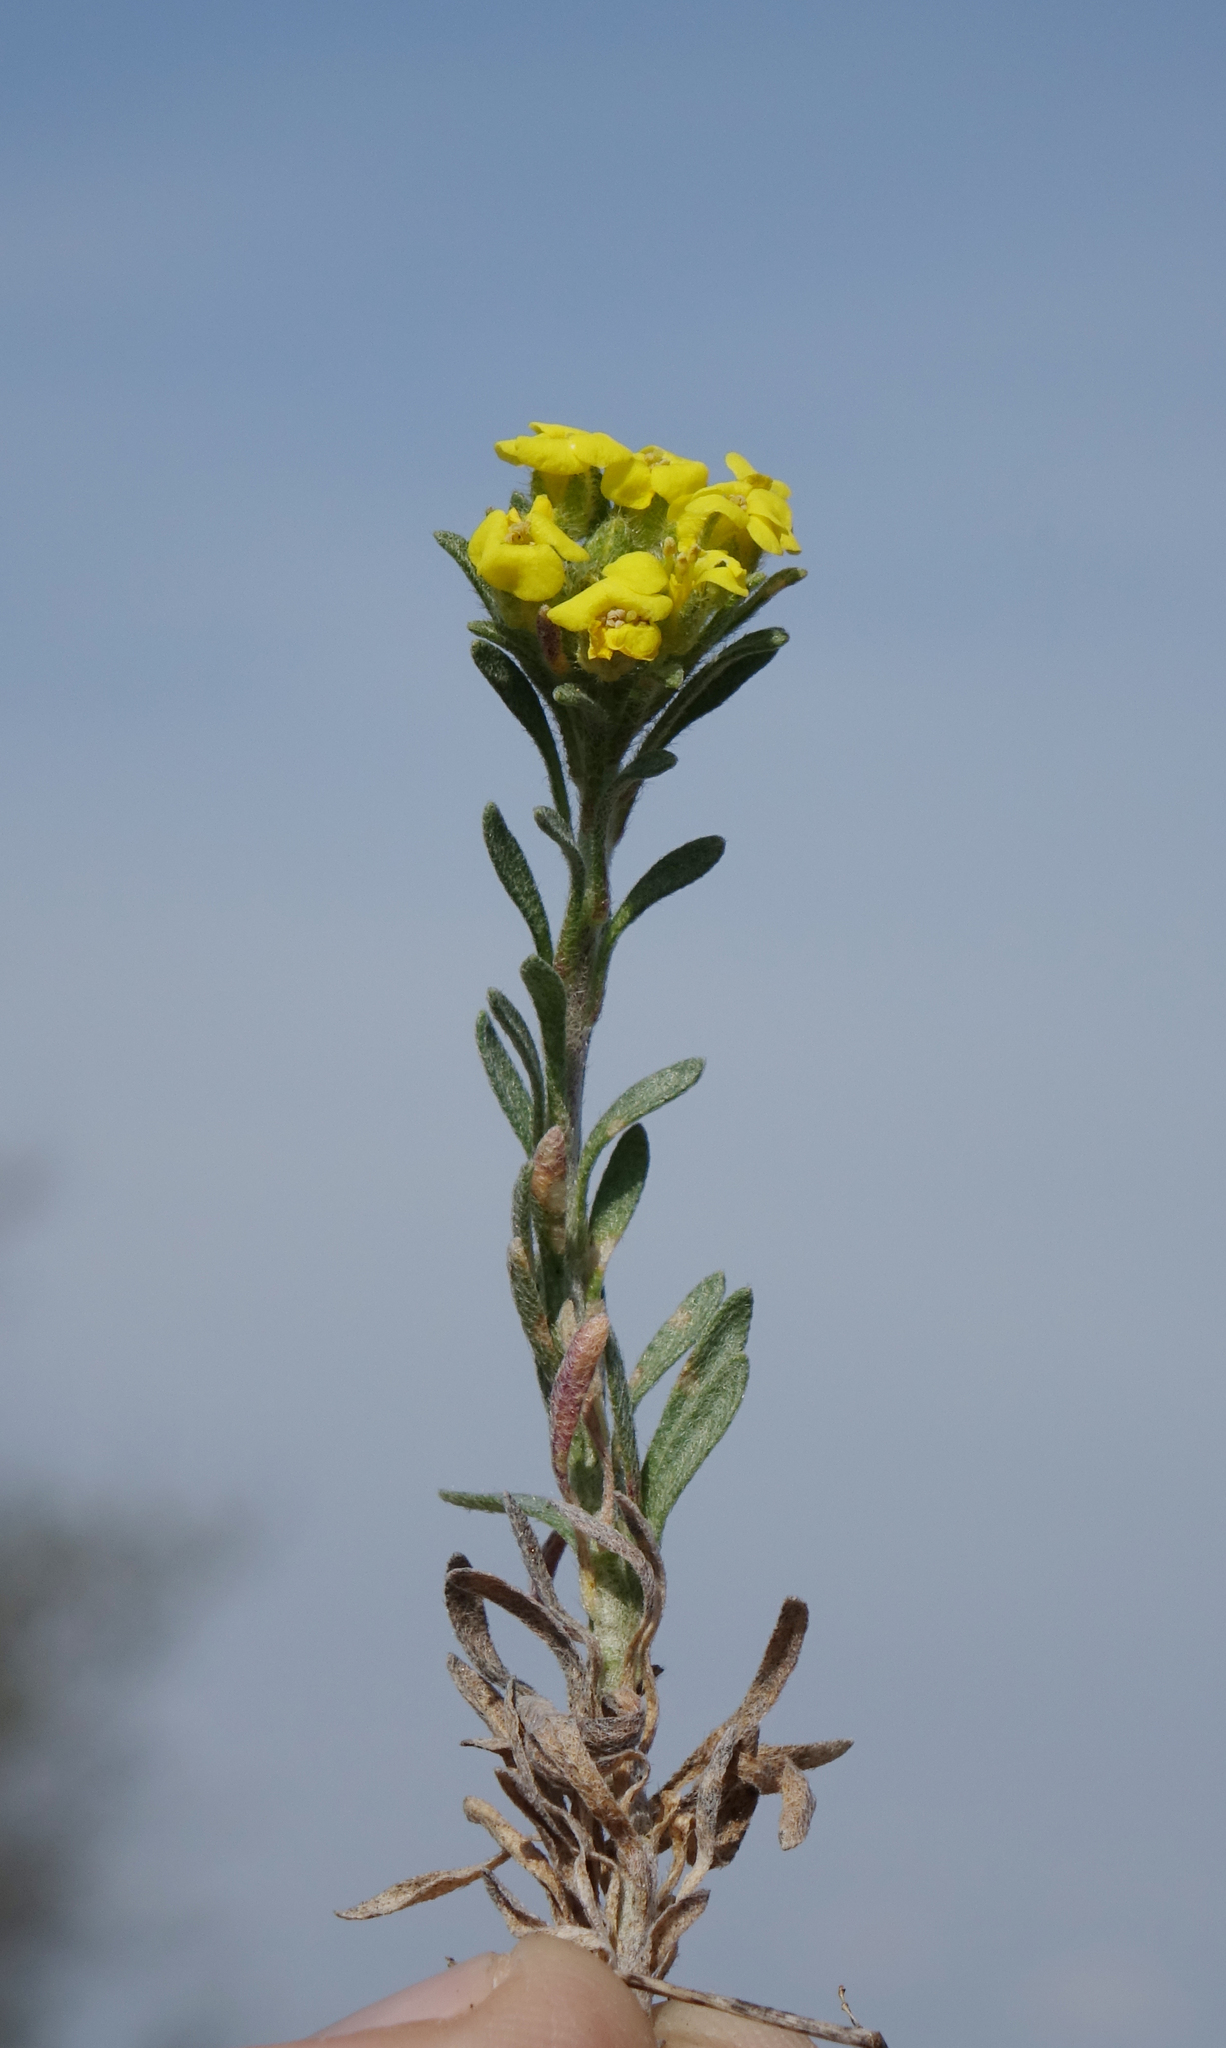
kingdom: Plantae
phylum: Tracheophyta
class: Magnoliopsida
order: Brassicales
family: Brassicaceae
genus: Alyssum
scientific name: Alyssum lenense
